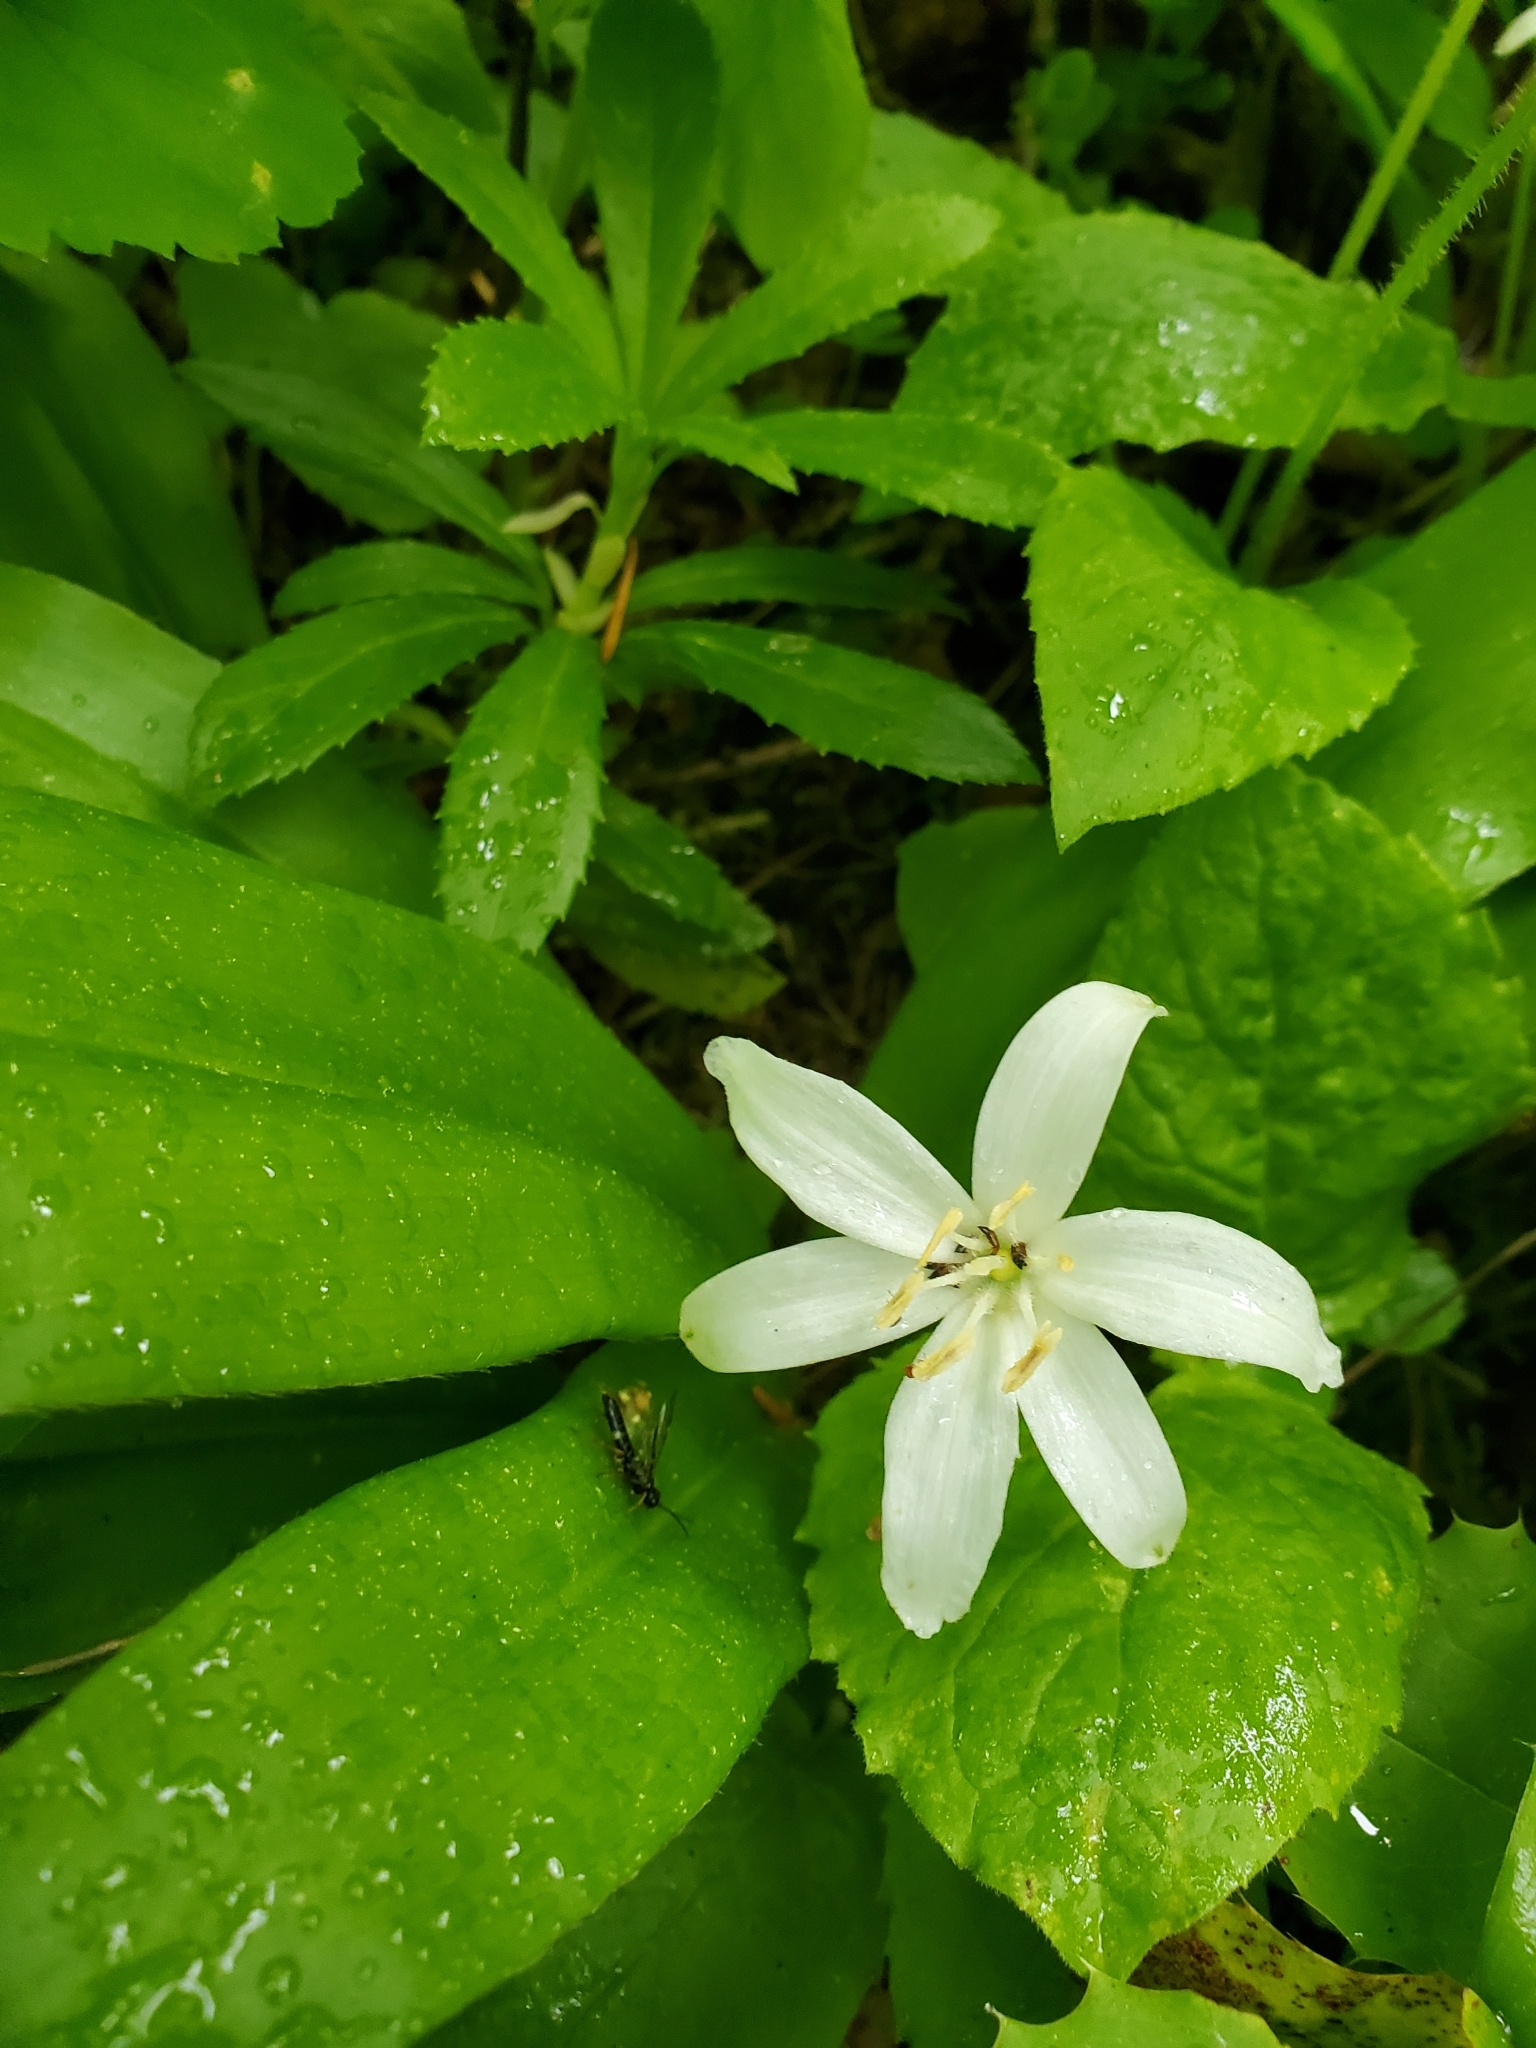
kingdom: Plantae
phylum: Tracheophyta
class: Liliopsida
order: Liliales
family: Liliaceae
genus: Clintonia
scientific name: Clintonia uniflora
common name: Queen's cup
